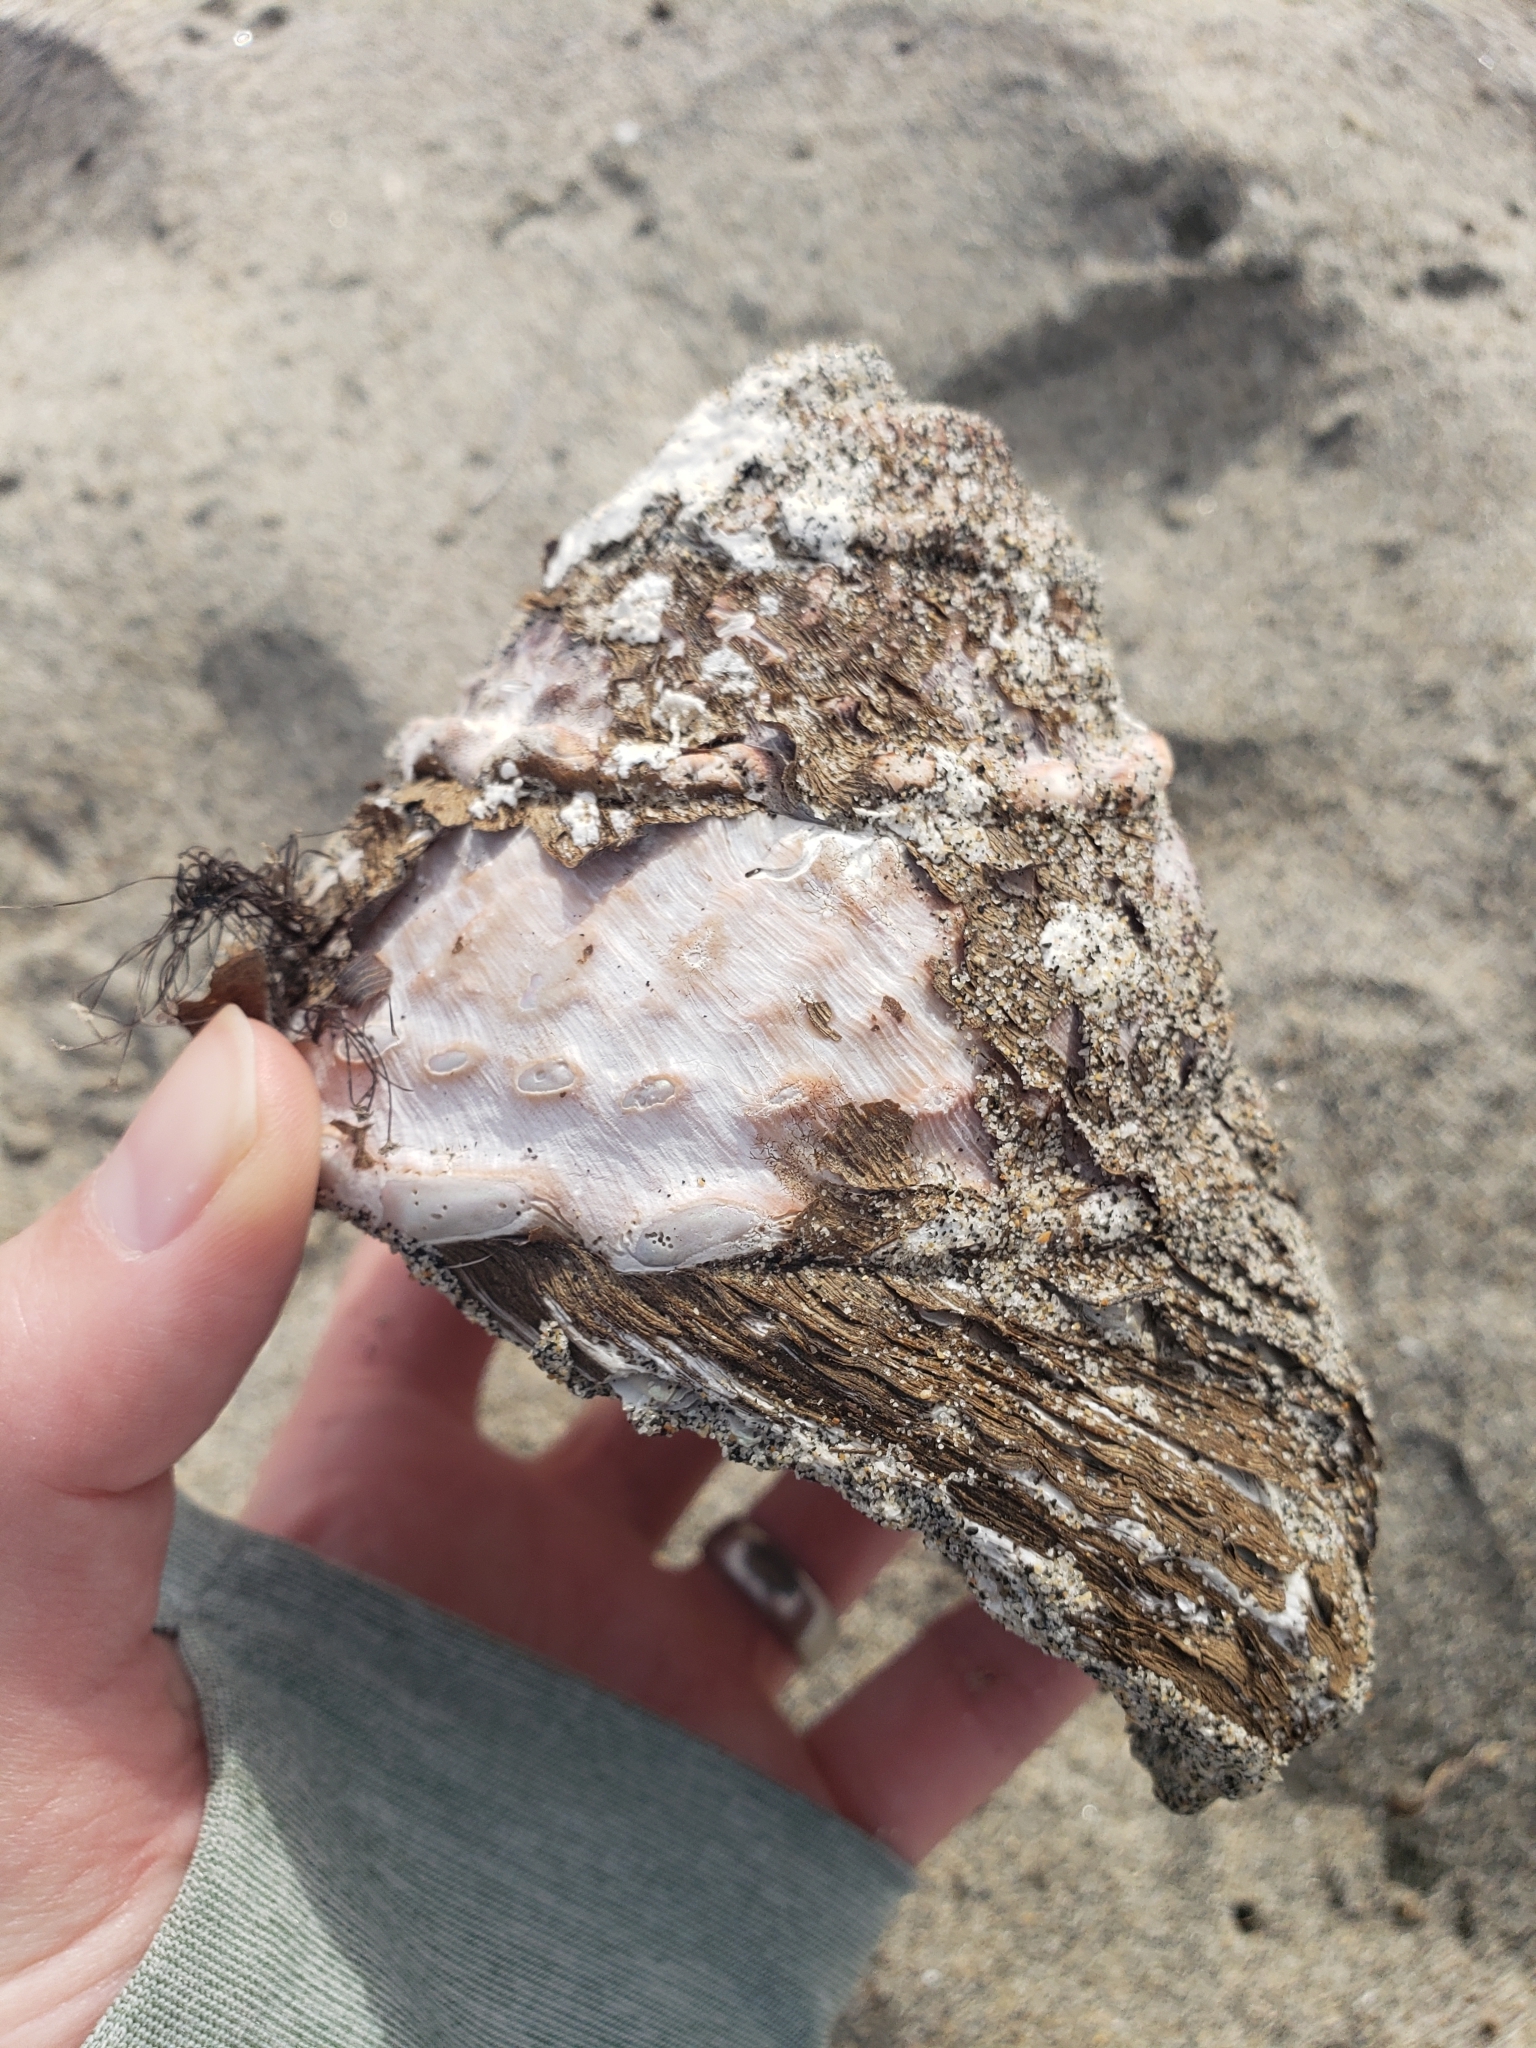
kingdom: Animalia
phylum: Mollusca
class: Gastropoda
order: Trochida
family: Turbinidae
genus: Megastraea
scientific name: Megastraea undosa
